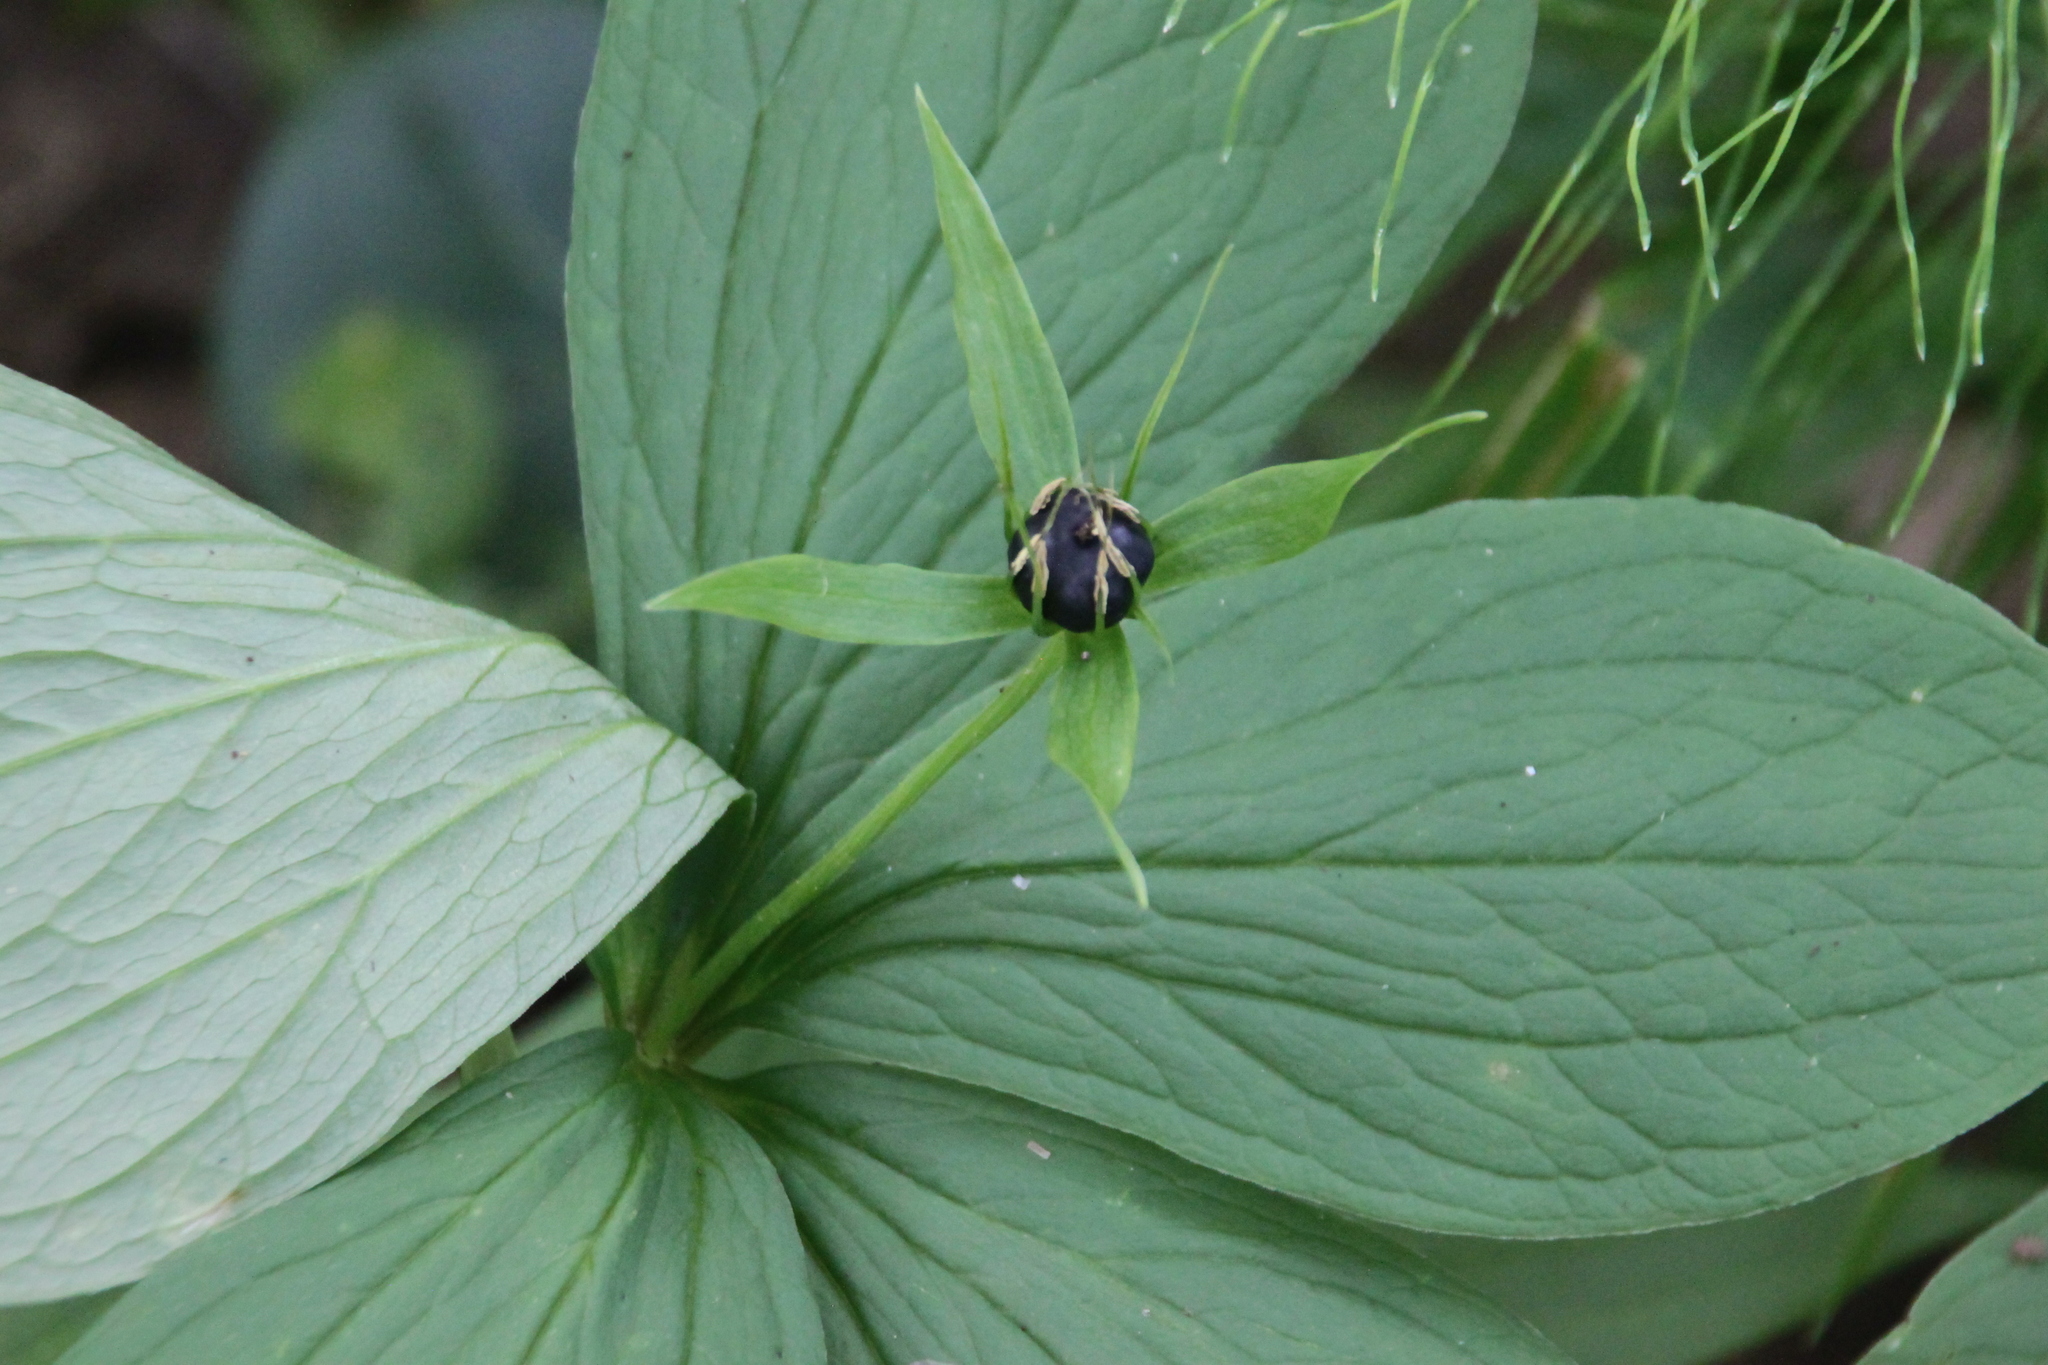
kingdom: Plantae
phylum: Tracheophyta
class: Liliopsida
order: Liliales
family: Melanthiaceae
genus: Paris
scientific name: Paris quadrifolia
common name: Herb-paris
